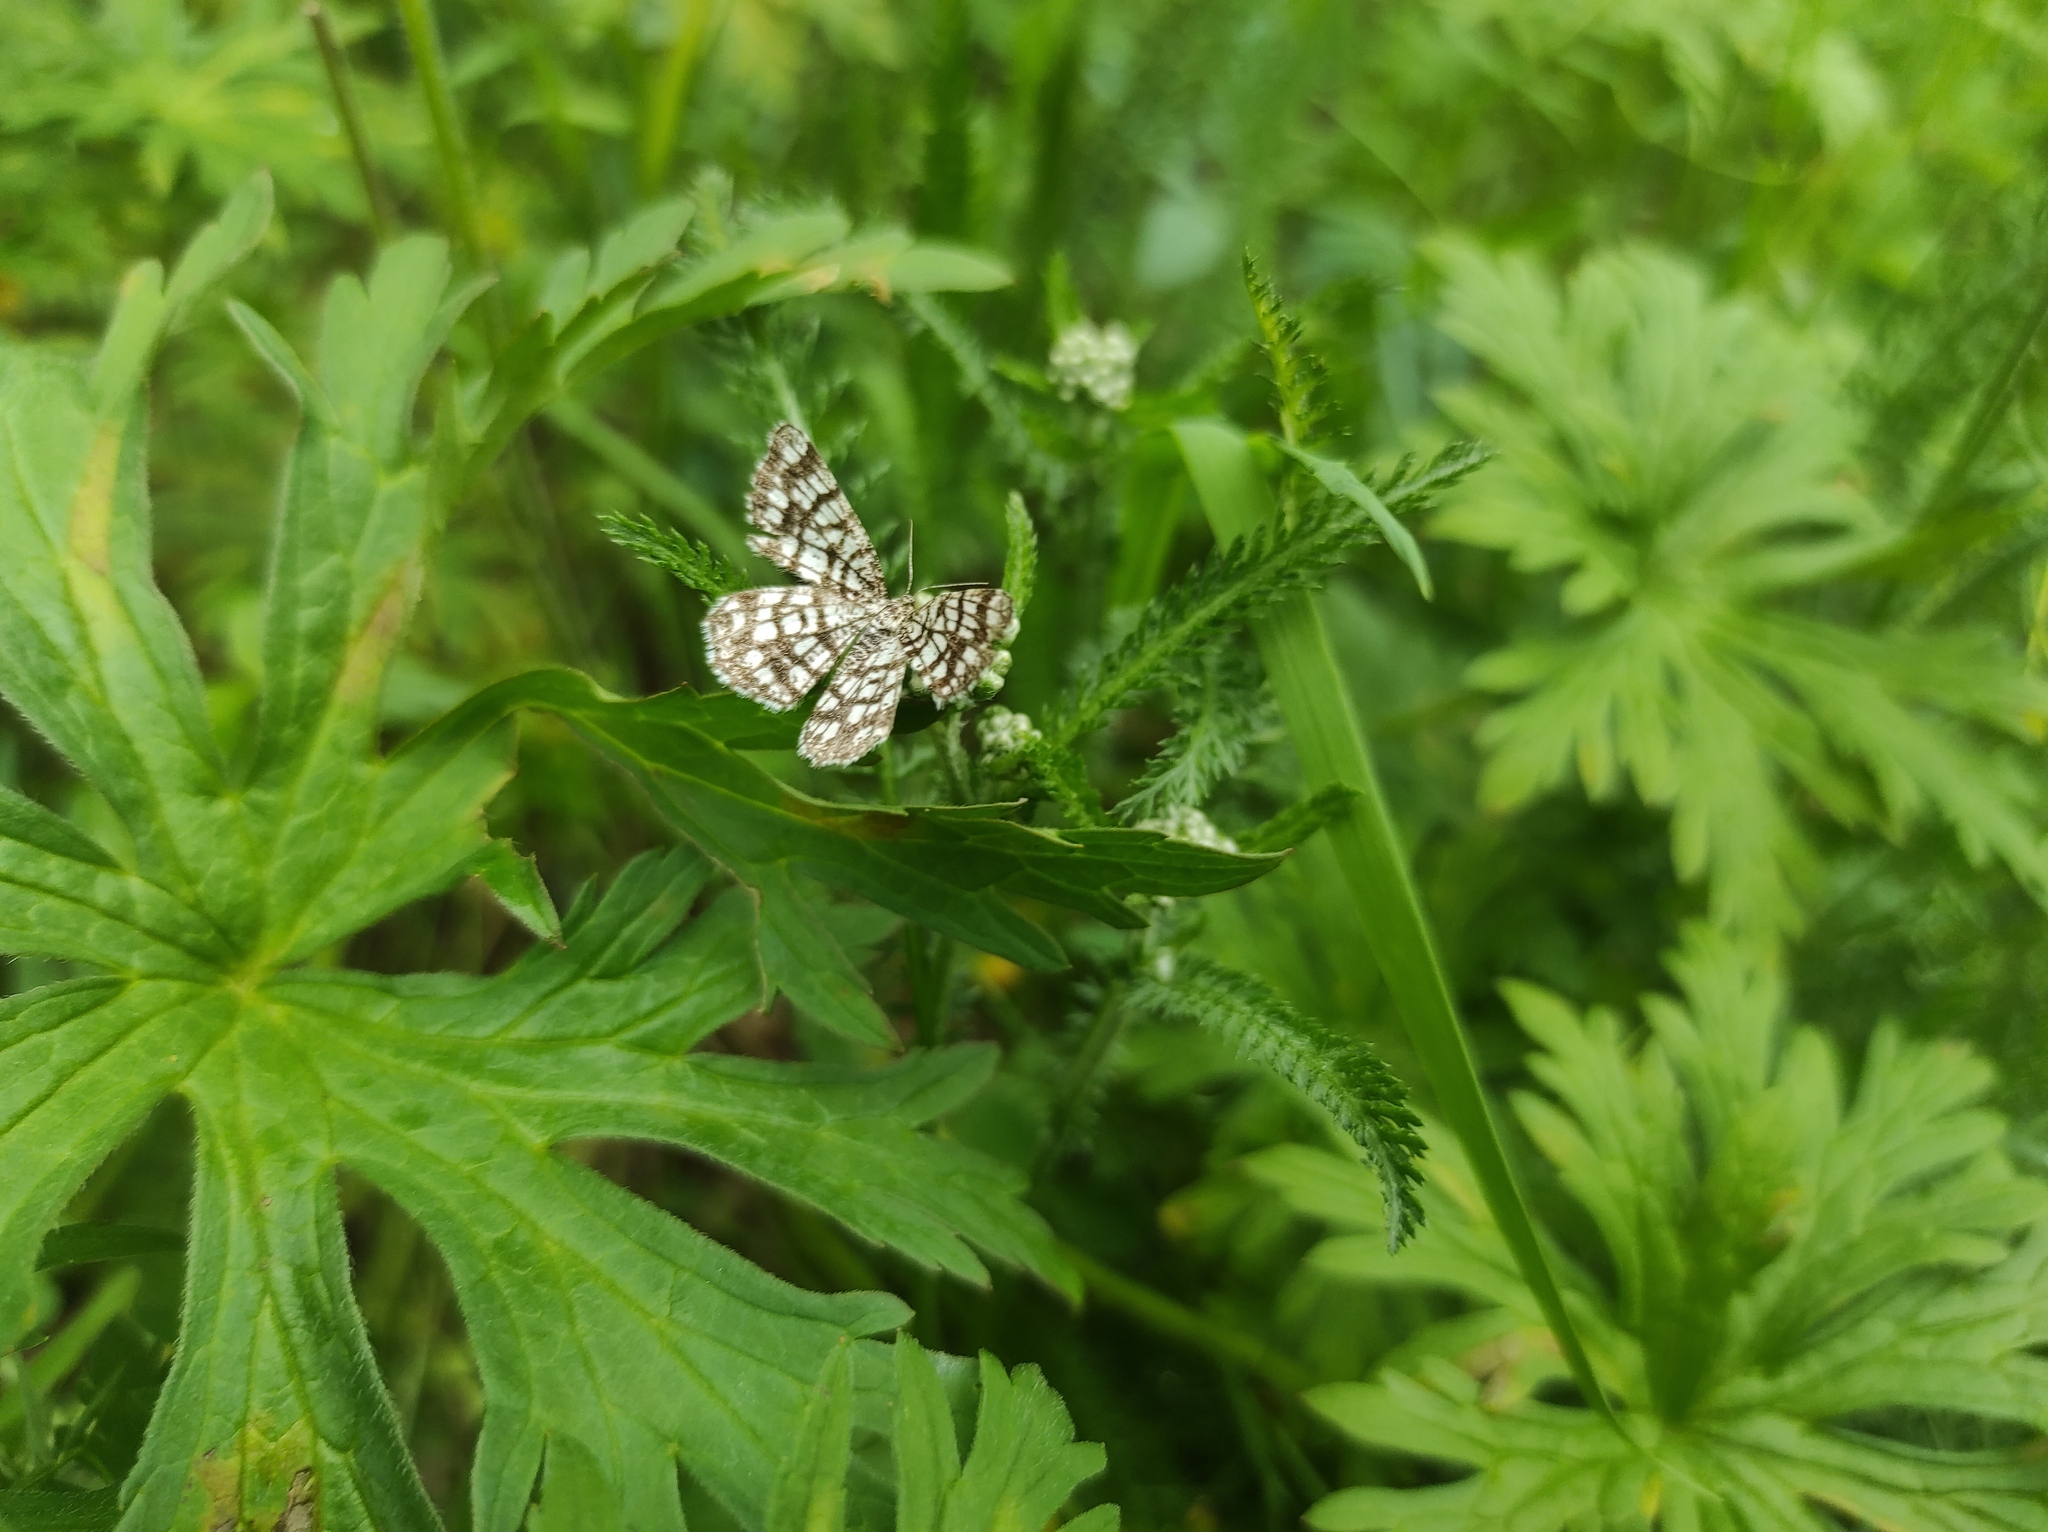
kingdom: Animalia
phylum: Arthropoda
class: Insecta
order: Lepidoptera
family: Geometridae
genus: Chiasmia
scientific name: Chiasmia clathrata
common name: Latticed heath
